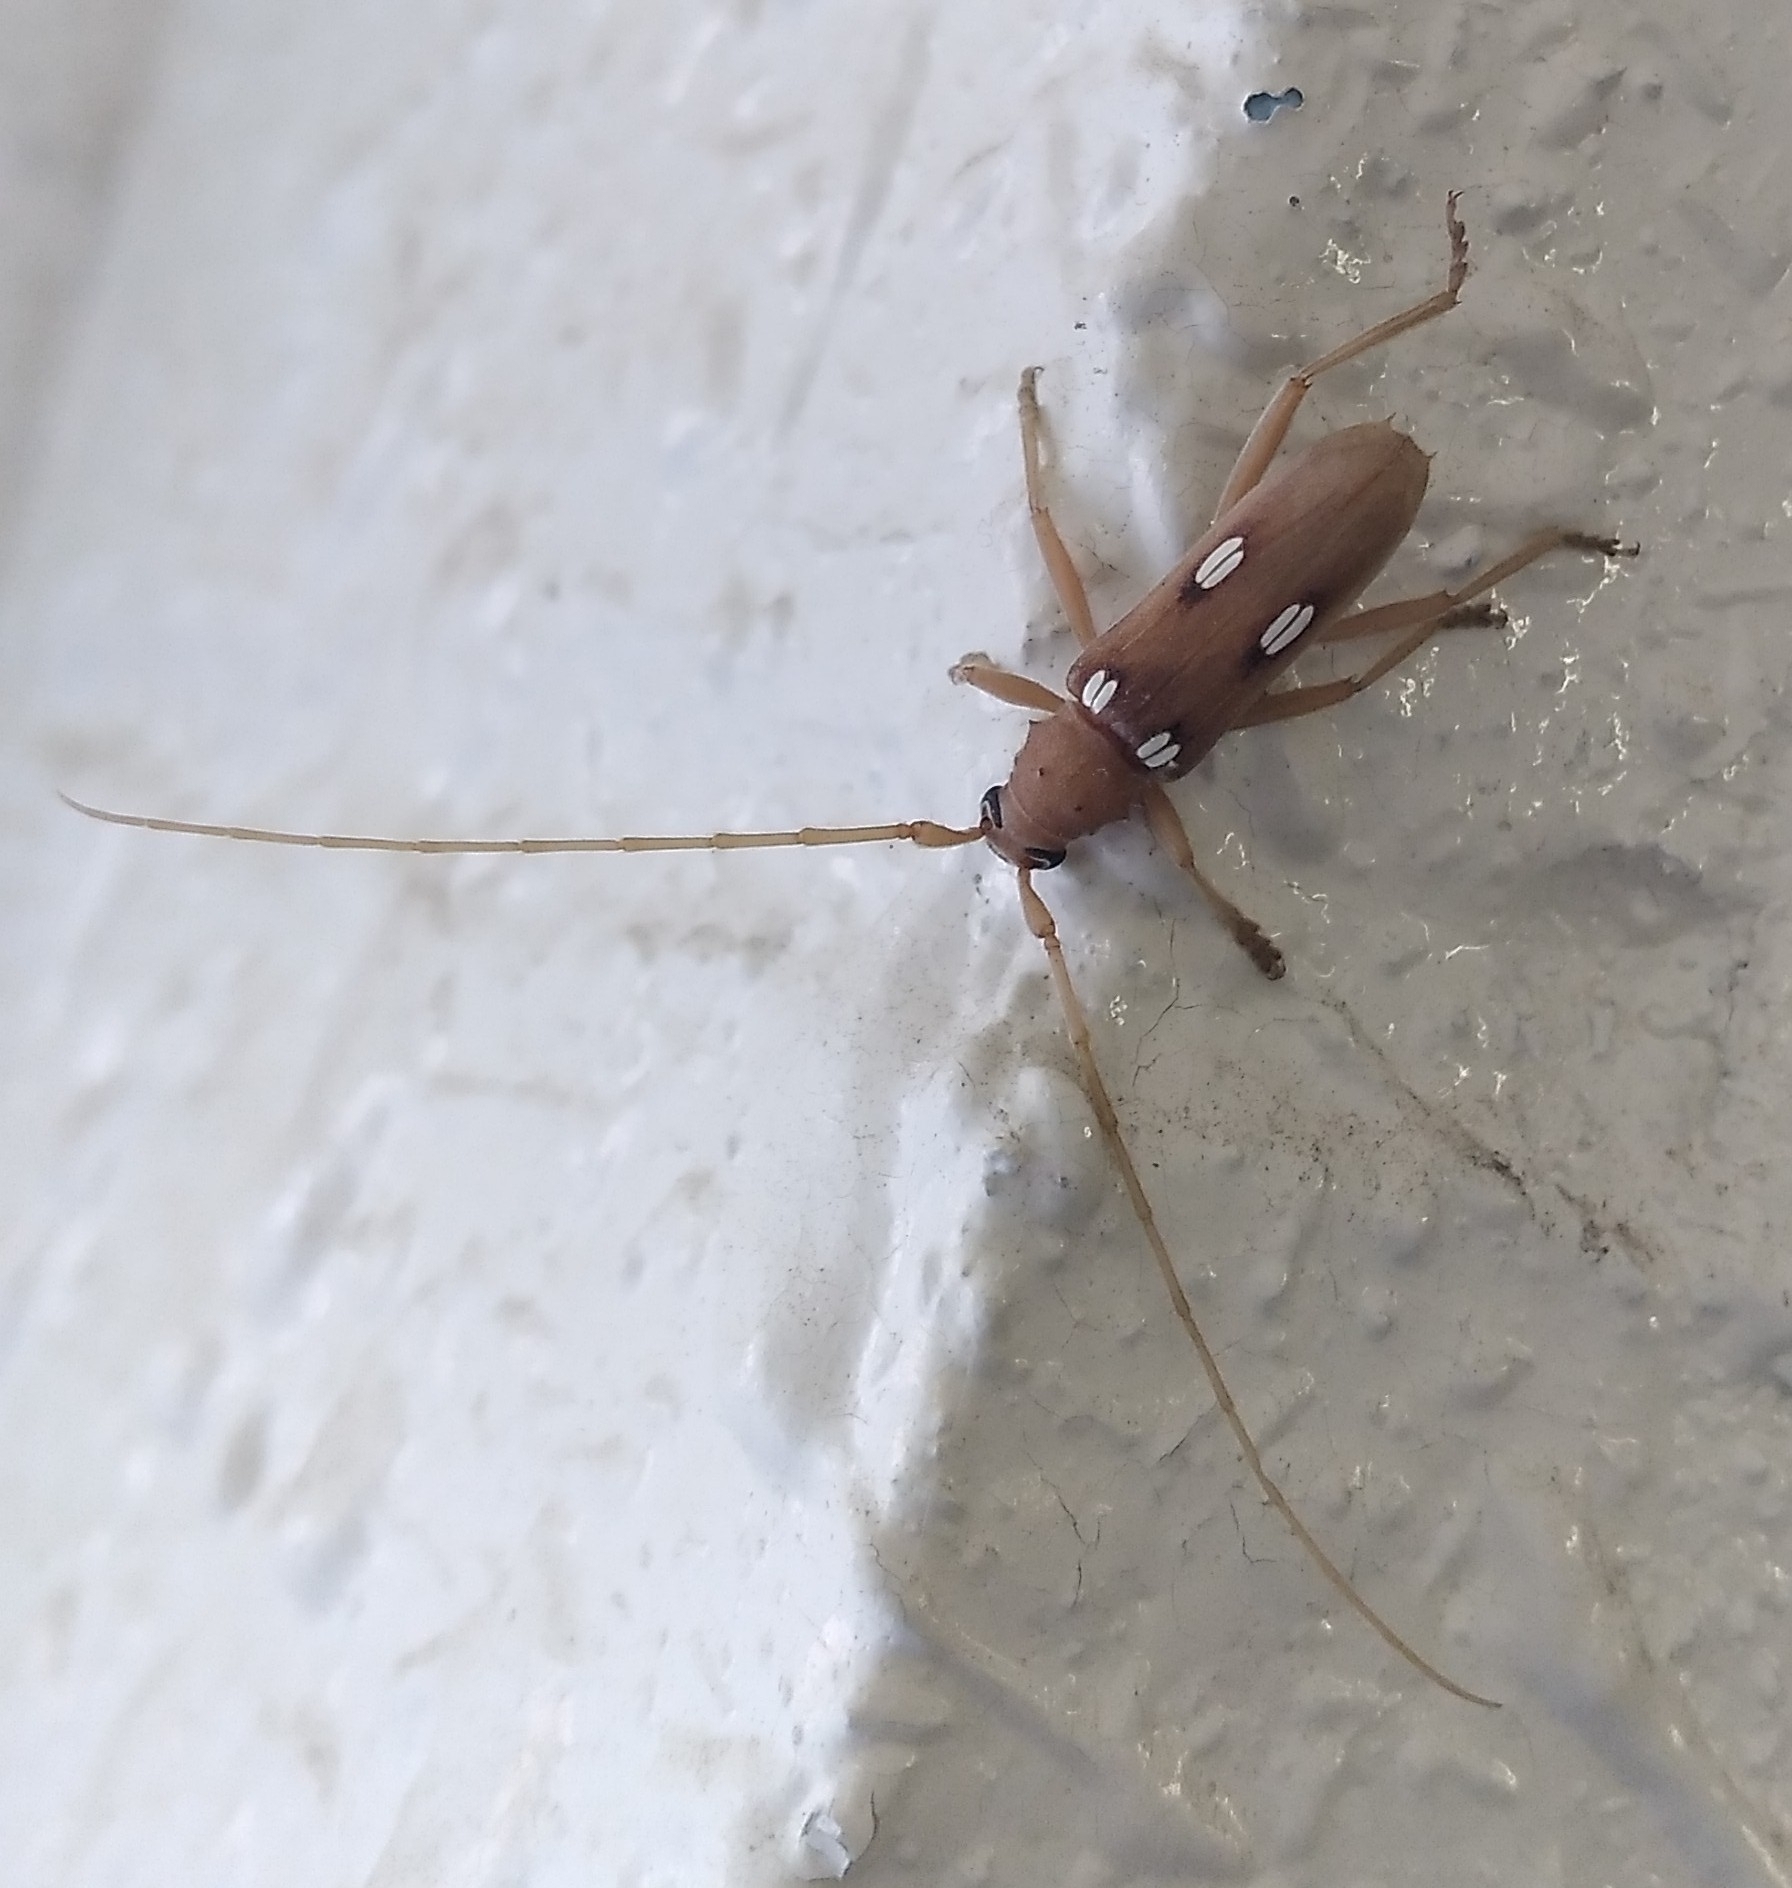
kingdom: Animalia
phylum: Arthropoda
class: Insecta
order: Coleoptera
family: Cerambycidae
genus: Eburia
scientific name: Eburia quadrigeminata
